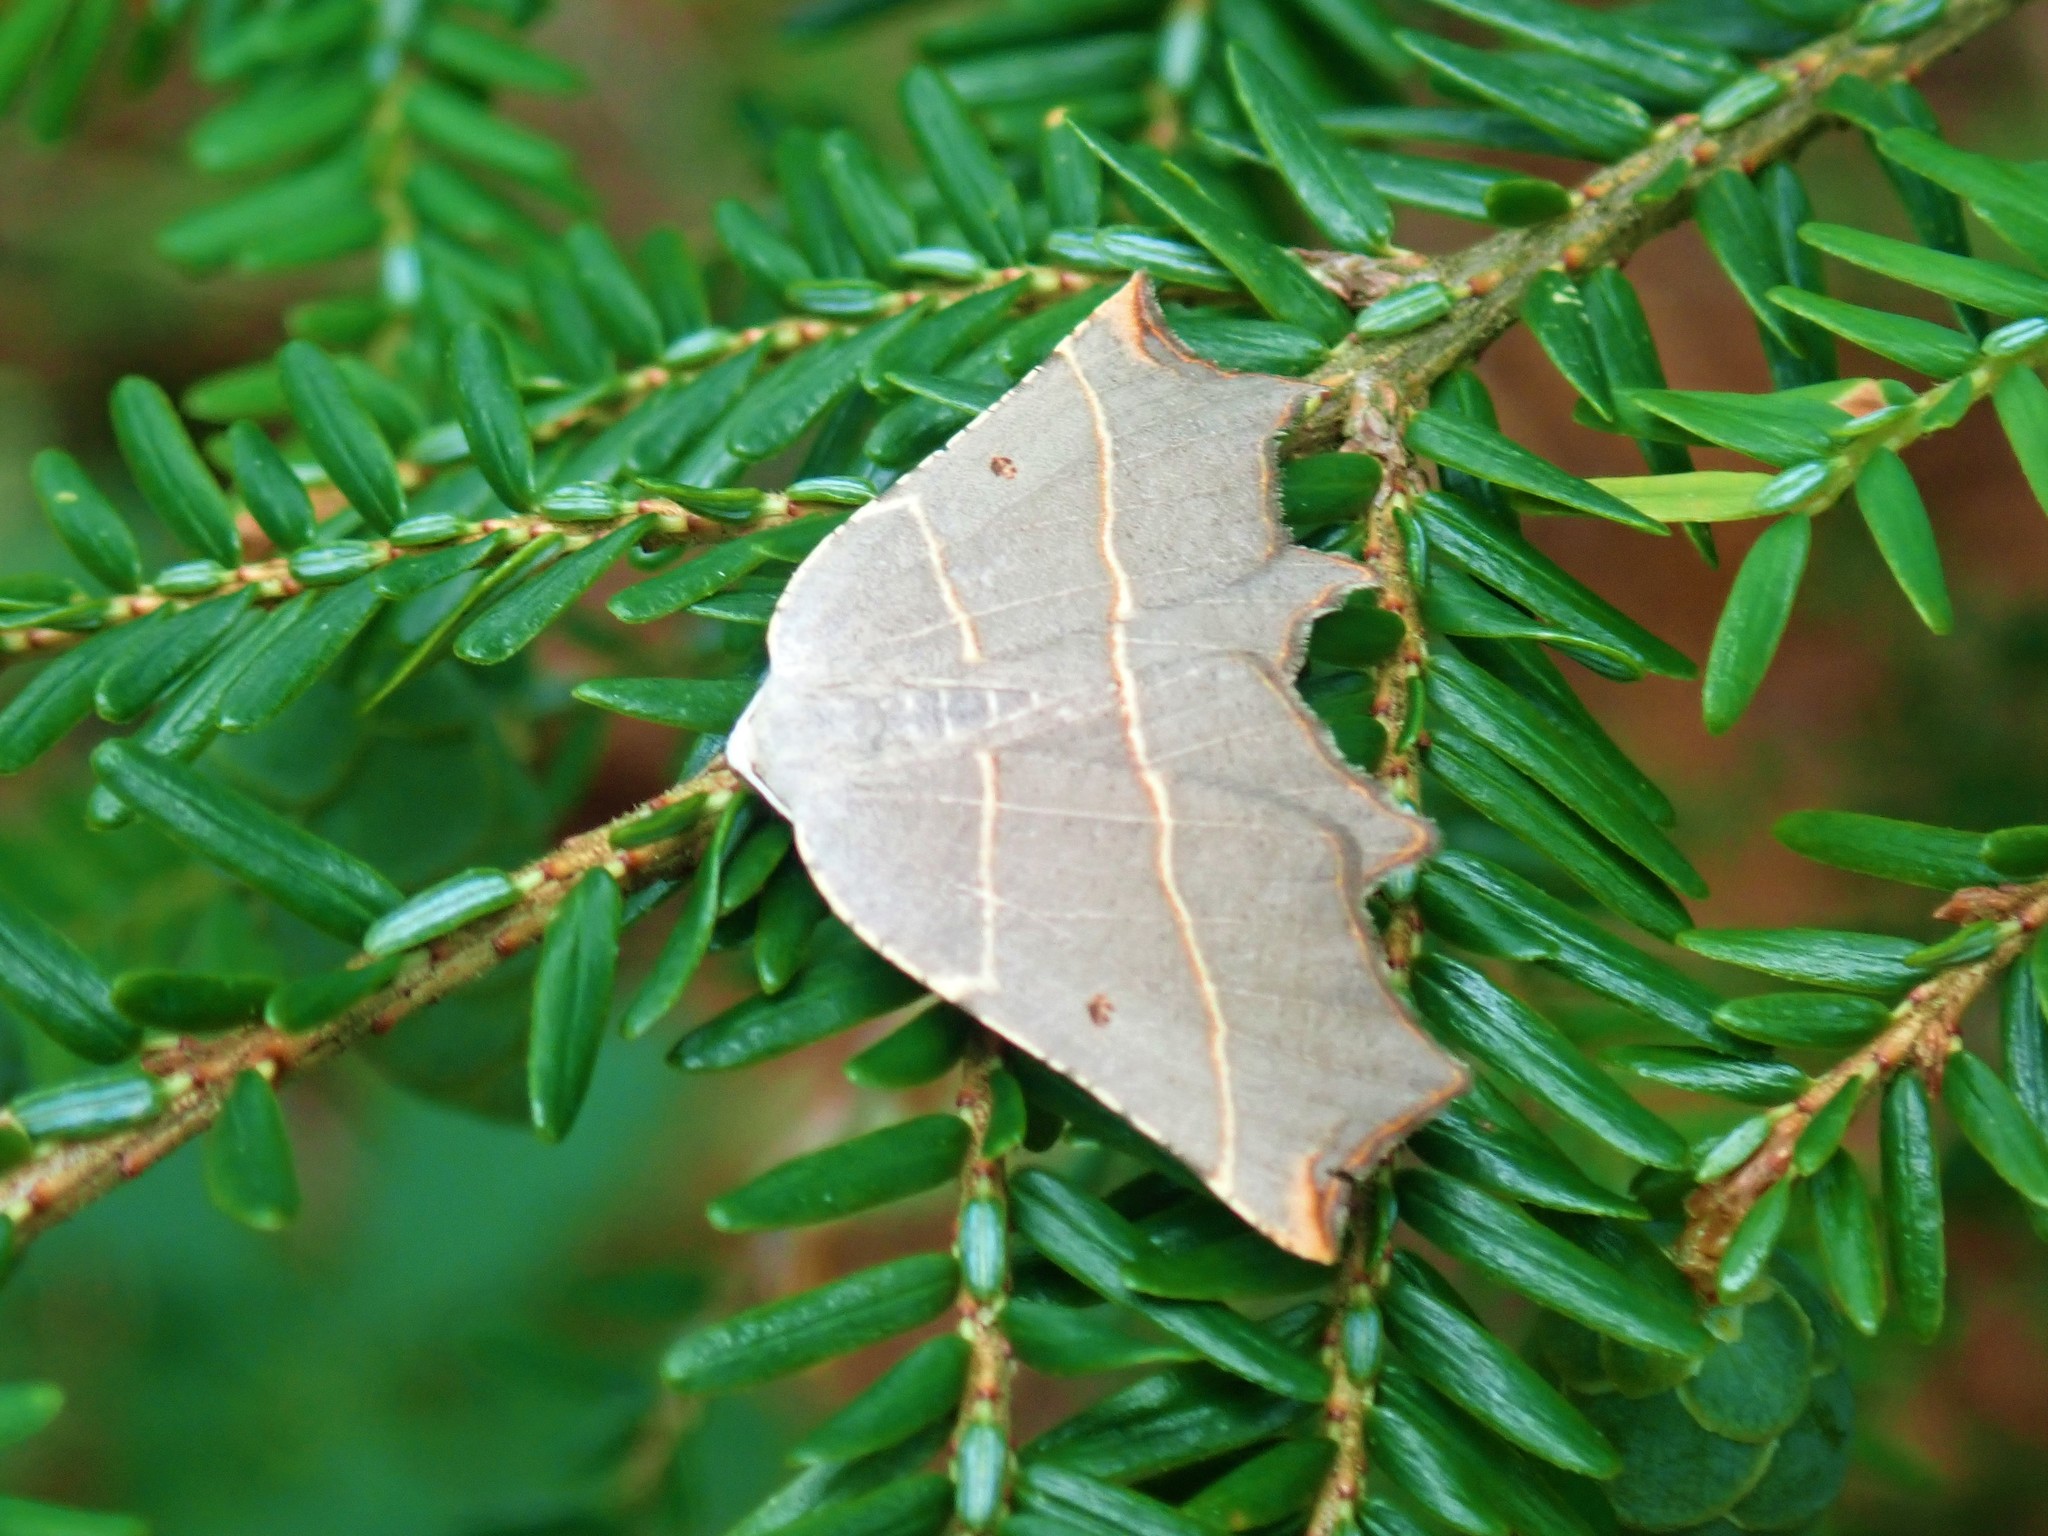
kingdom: Animalia
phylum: Arthropoda
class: Insecta
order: Lepidoptera
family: Geometridae
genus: Metanema
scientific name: Metanema inatomaria
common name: Pale metanema
